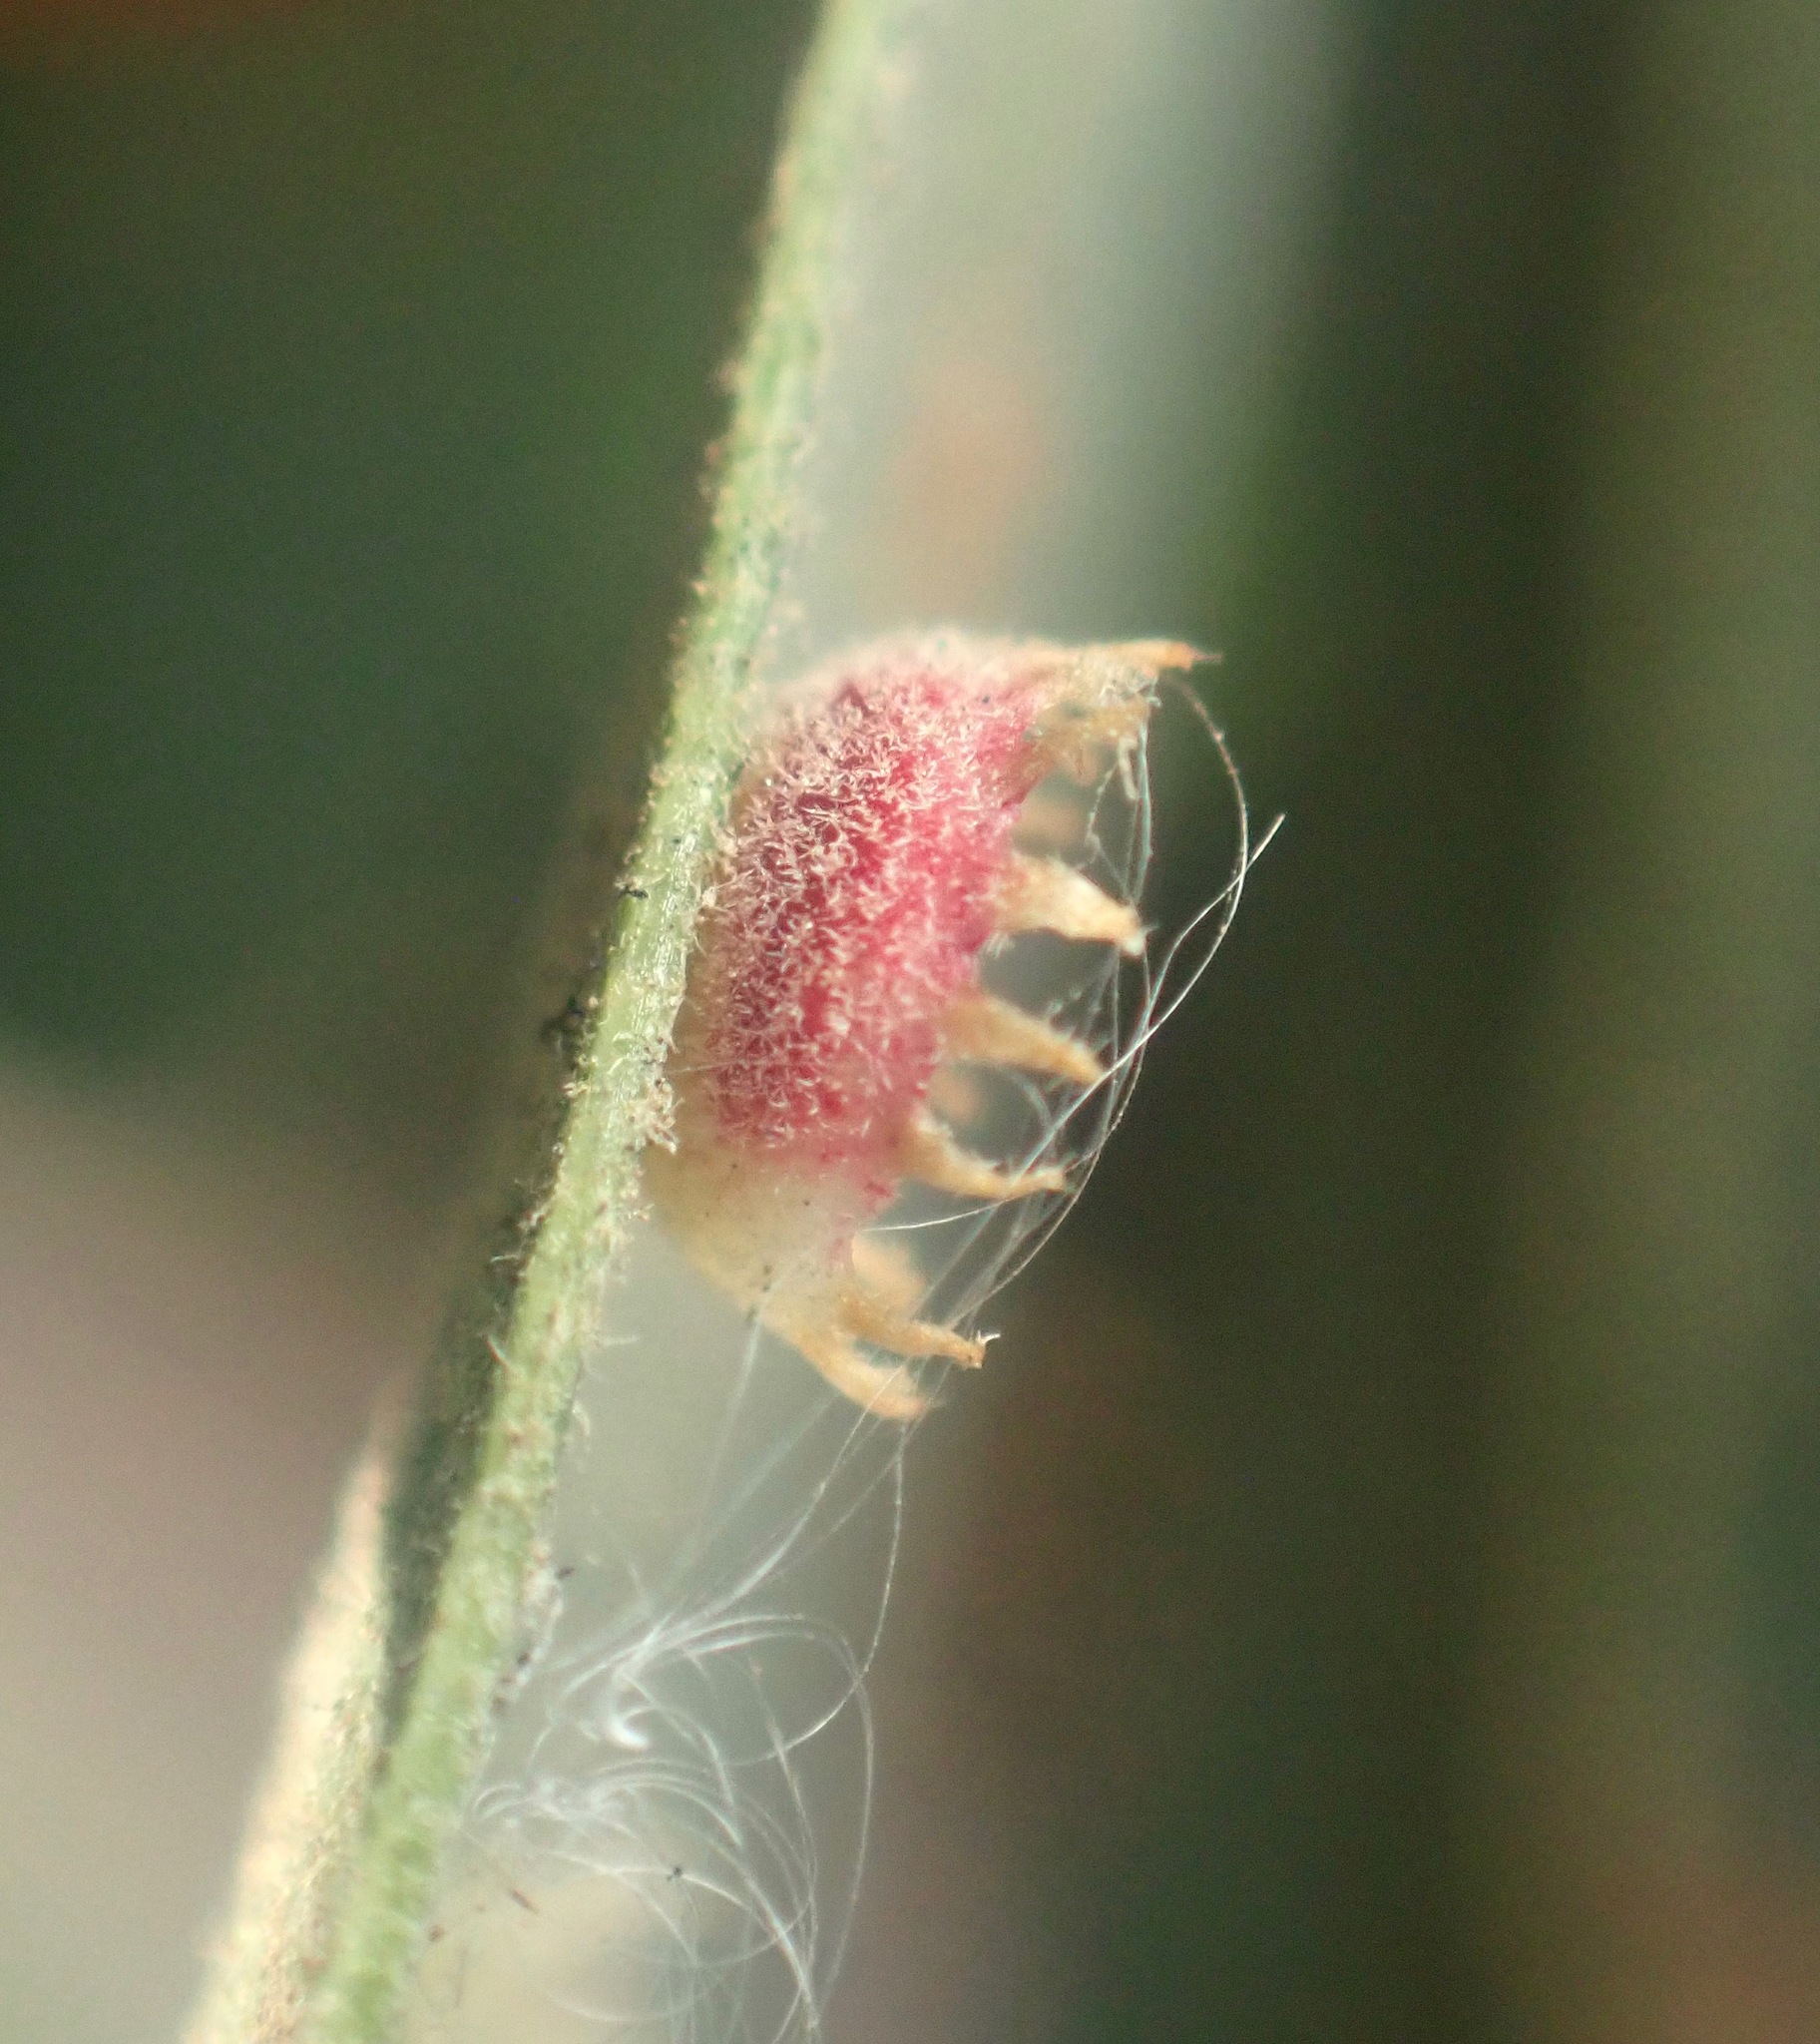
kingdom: Animalia
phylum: Arthropoda
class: Insecta
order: Hymenoptera
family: Cynipidae
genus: Andricus
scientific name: Andricus
